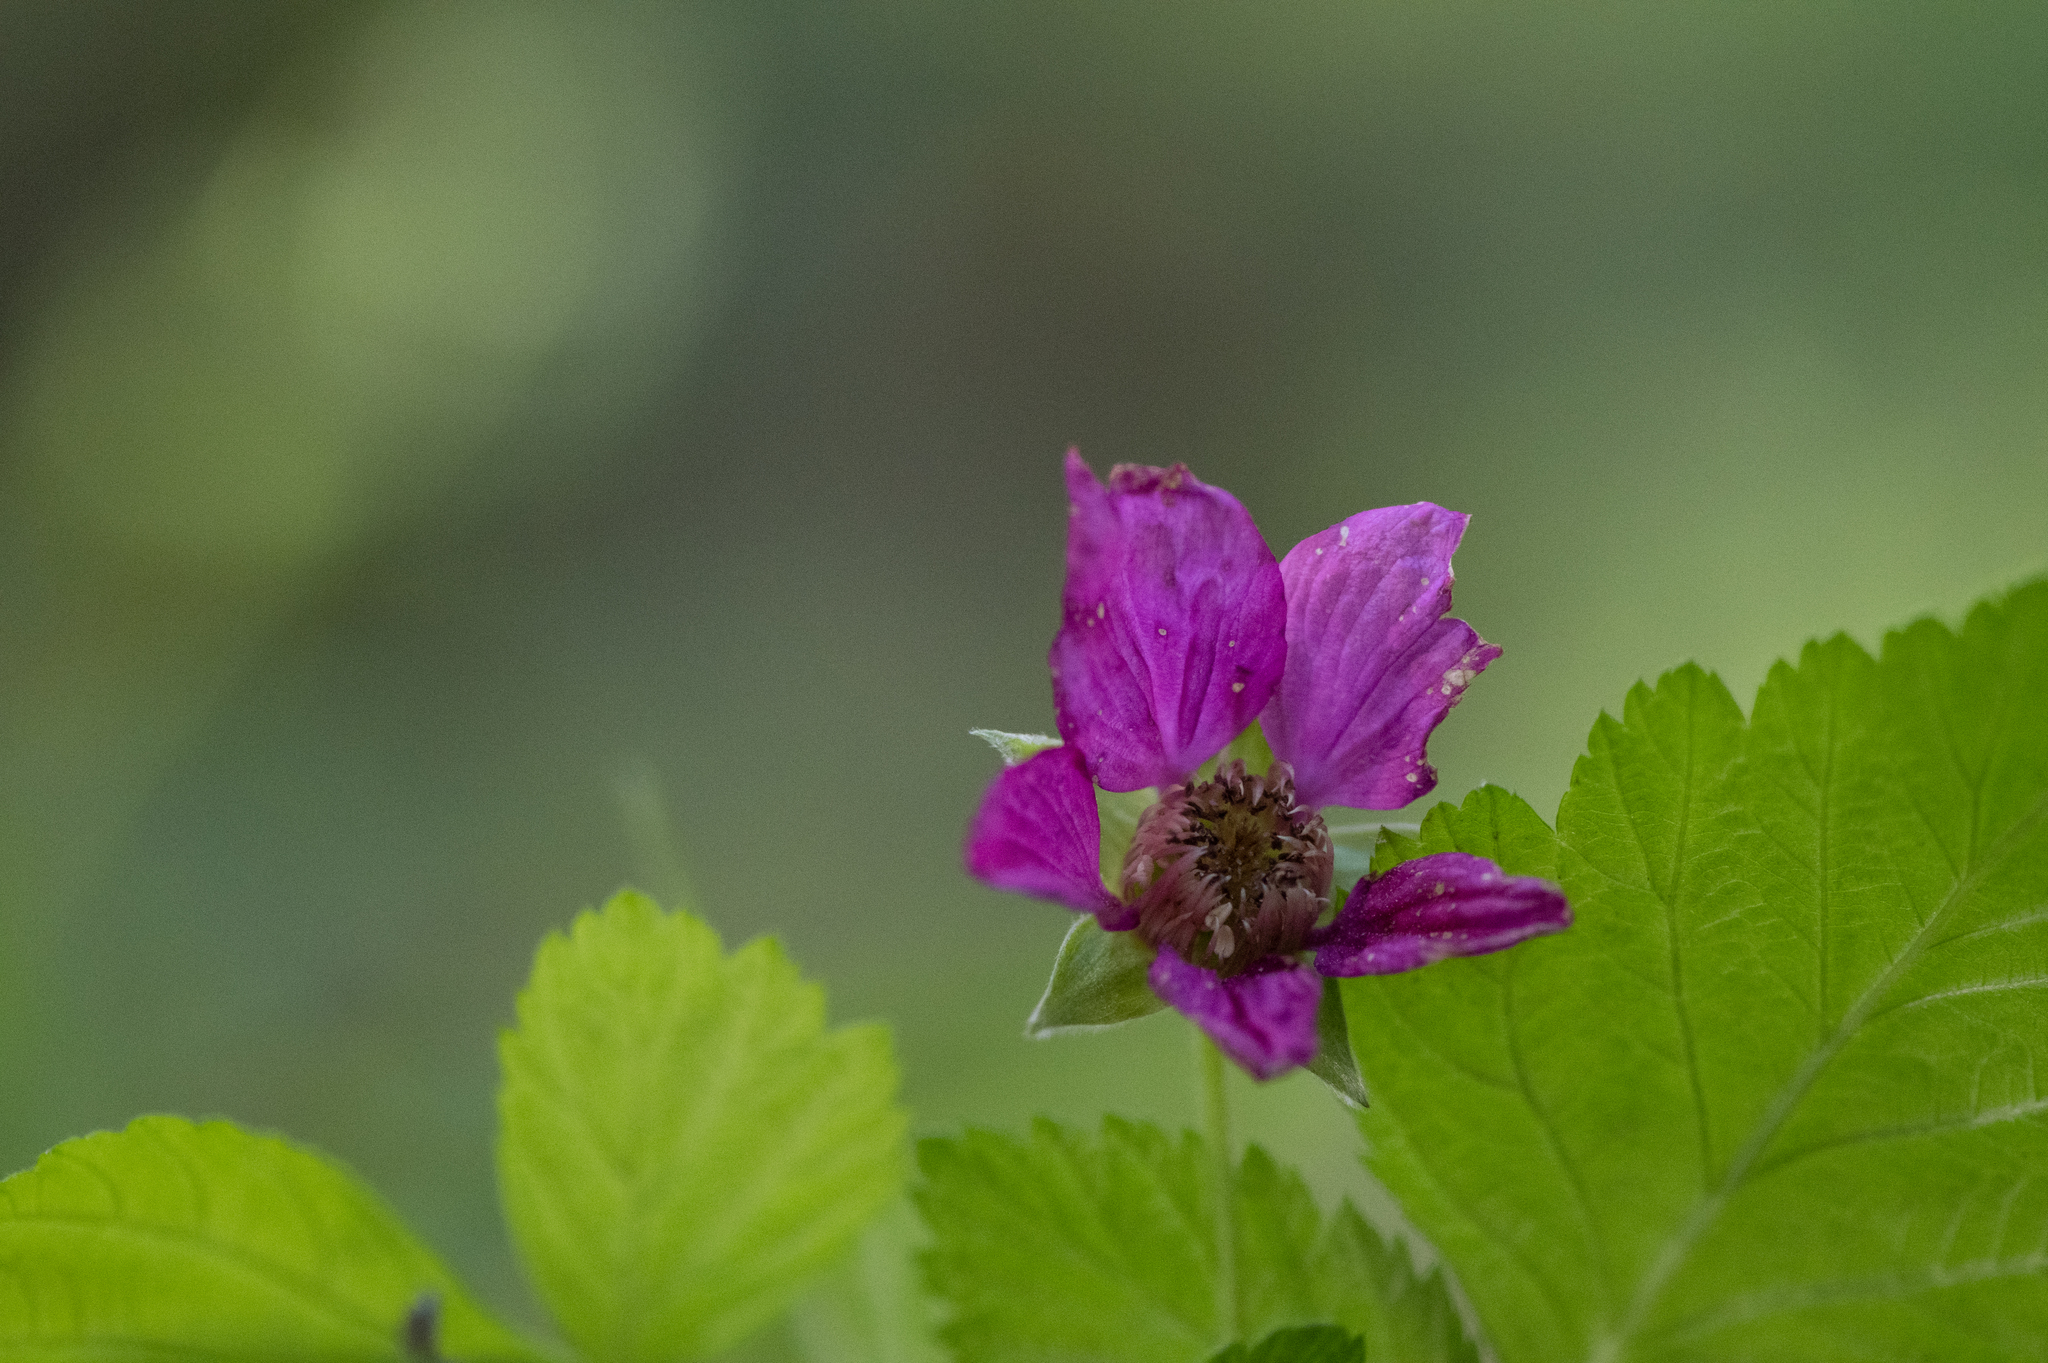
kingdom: Plantae
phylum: Tracheophyta
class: Magnoliopsida
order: Rosales
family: Rosaceae
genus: Rubus
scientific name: Rubus spectabilis
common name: Salmonberry
